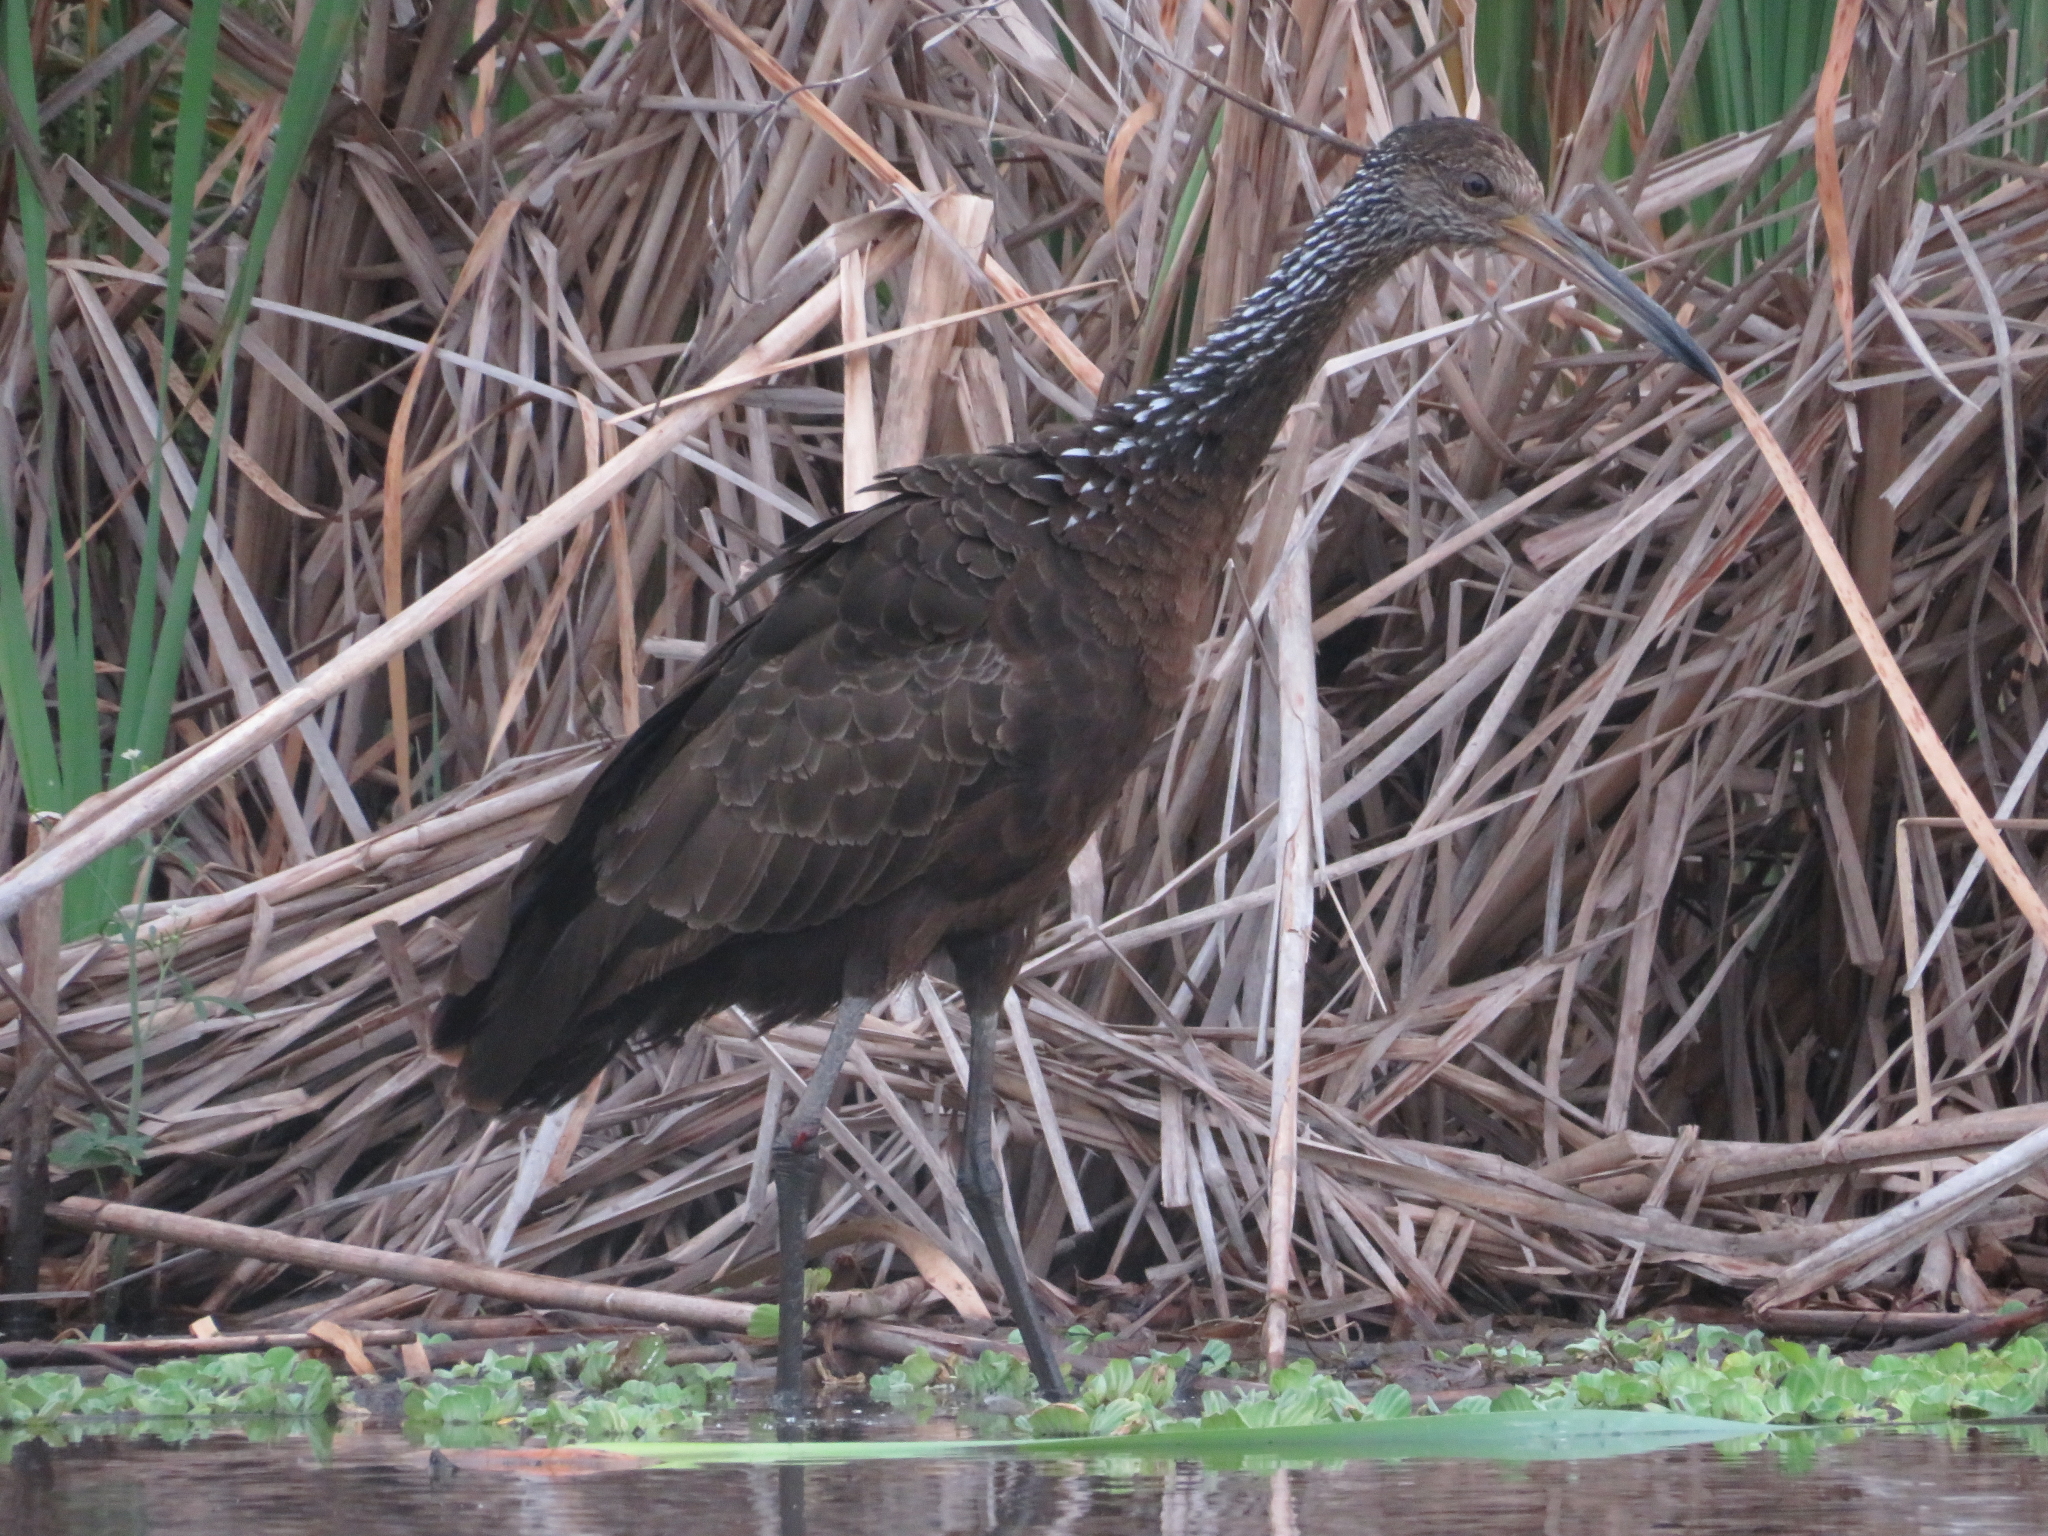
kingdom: Animalia
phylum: Chordata
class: Aves
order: Gruiformes
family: Aramidae
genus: Aramus
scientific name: Aramus guarauna
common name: Limpkin
